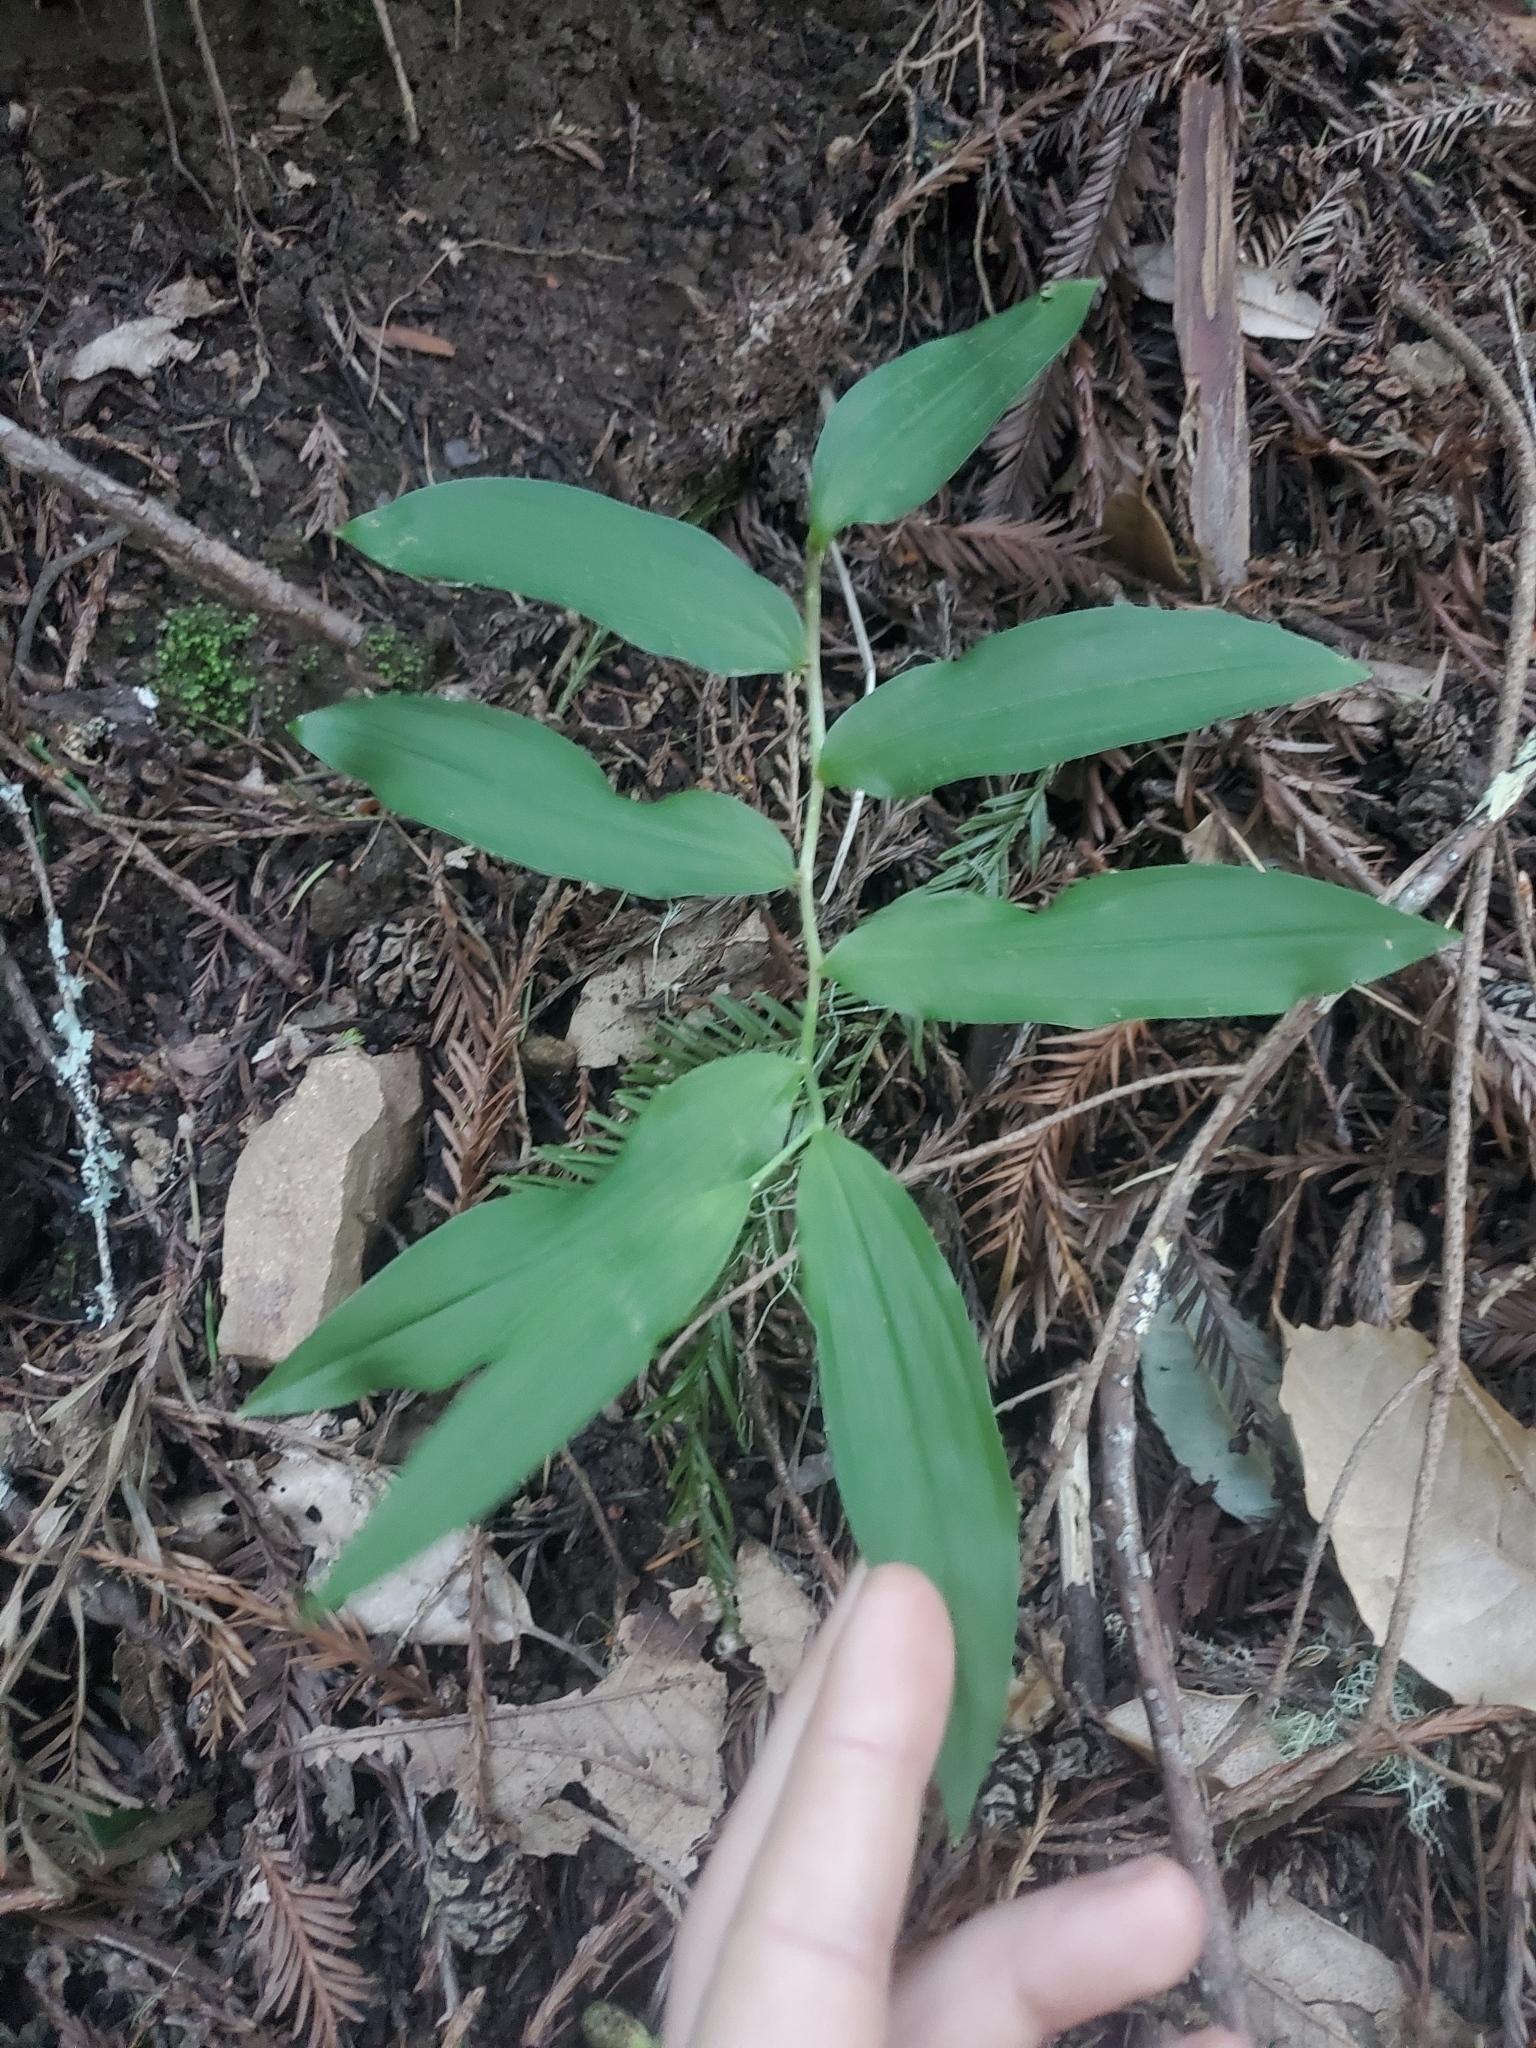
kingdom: Plantae
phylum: Tracheophyta
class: Liliopsida
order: Asparagales
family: Asparagaceae
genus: Maianthemum
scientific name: Maianthemum racemosum
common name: False spikenard
